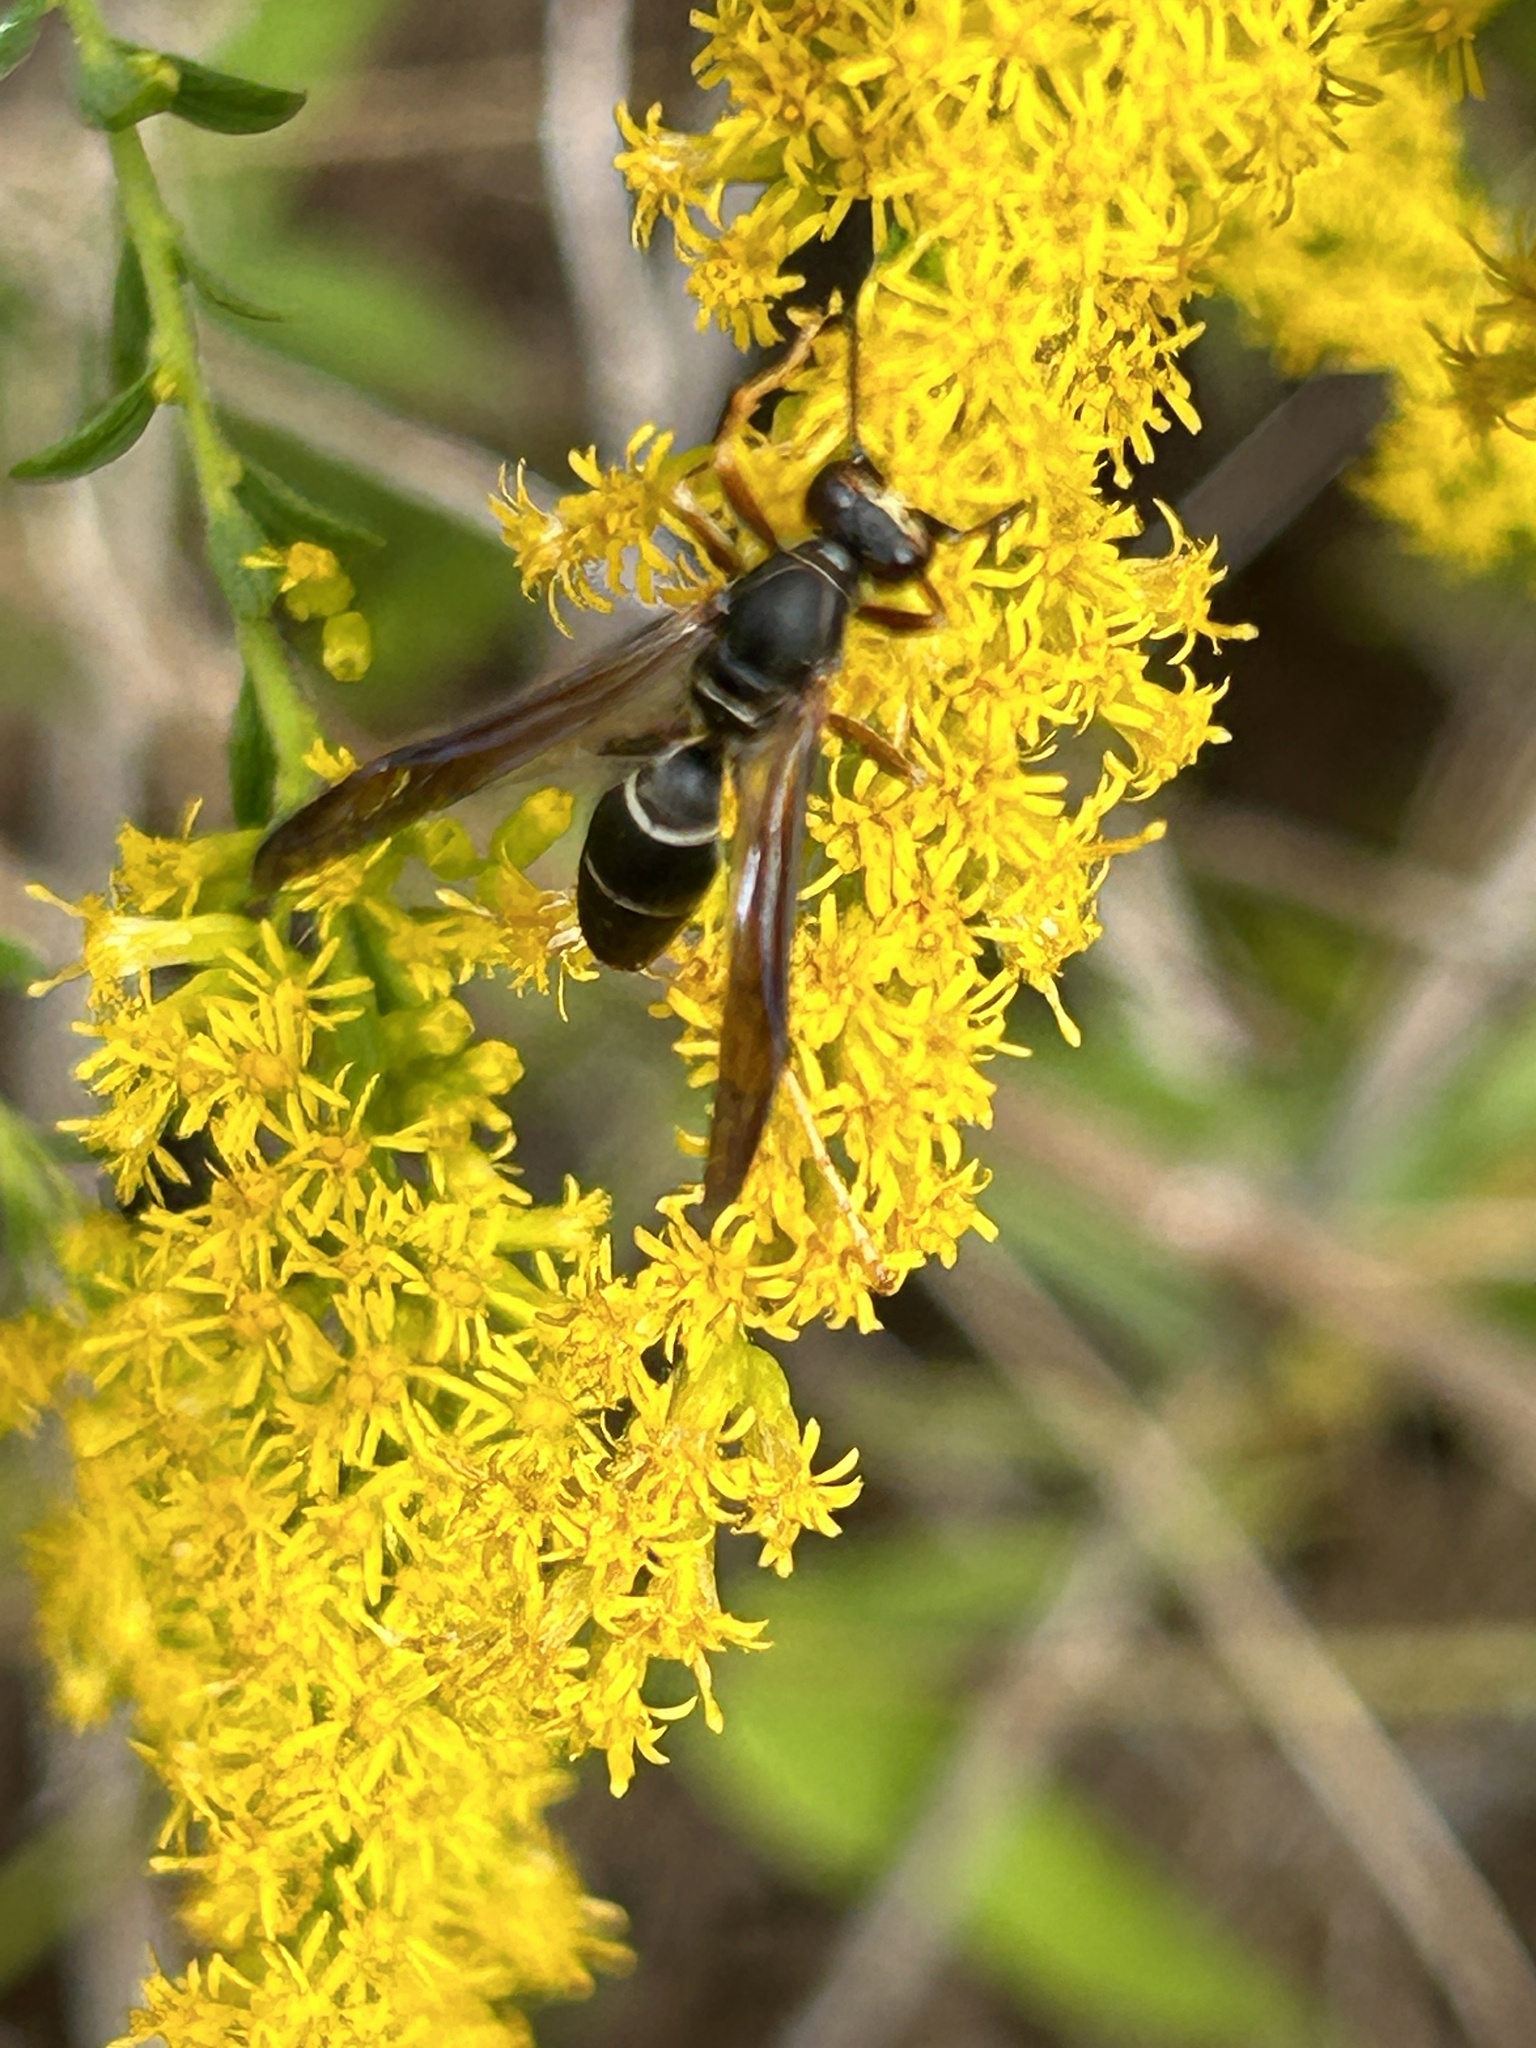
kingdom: Animalia
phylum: Arthropoda
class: Insecta
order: Hymenoptera
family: Eumenidae
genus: Polistes
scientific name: Polistes fuscatus
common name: Dark paper wasp
